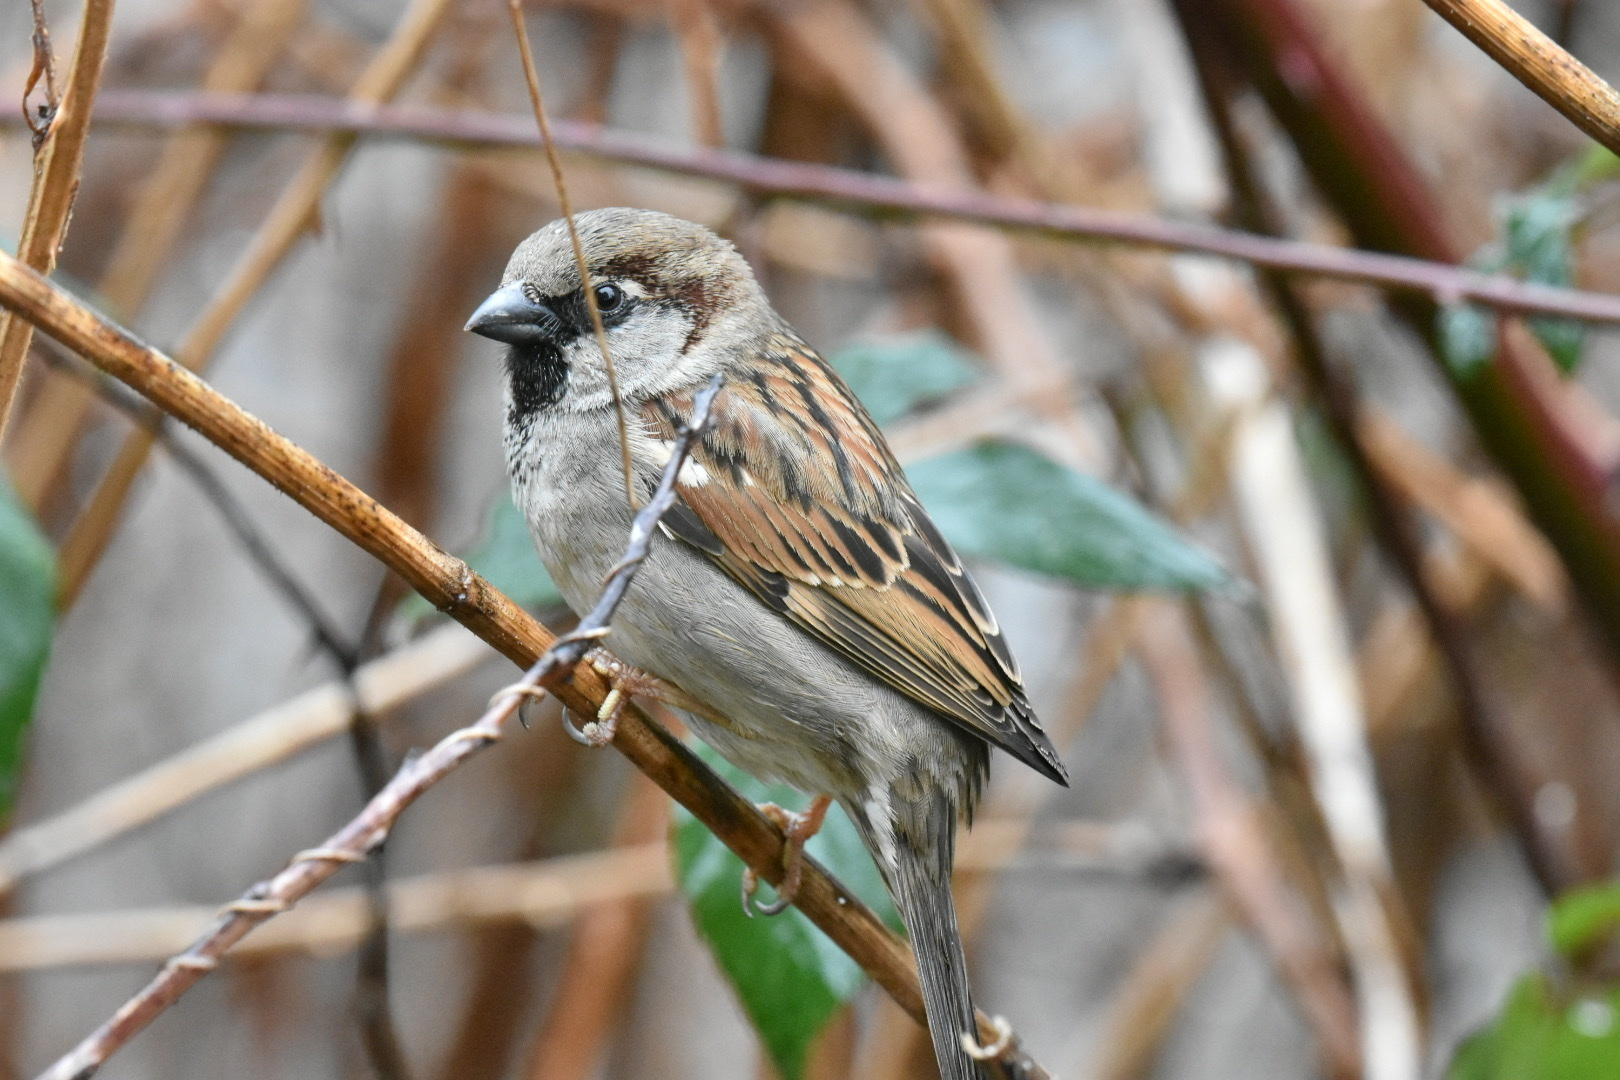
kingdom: Animalia
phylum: Chordata
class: Aves
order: Passeriformes
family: Passeridae
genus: Passer
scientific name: Passer domesticus
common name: House sparrow
